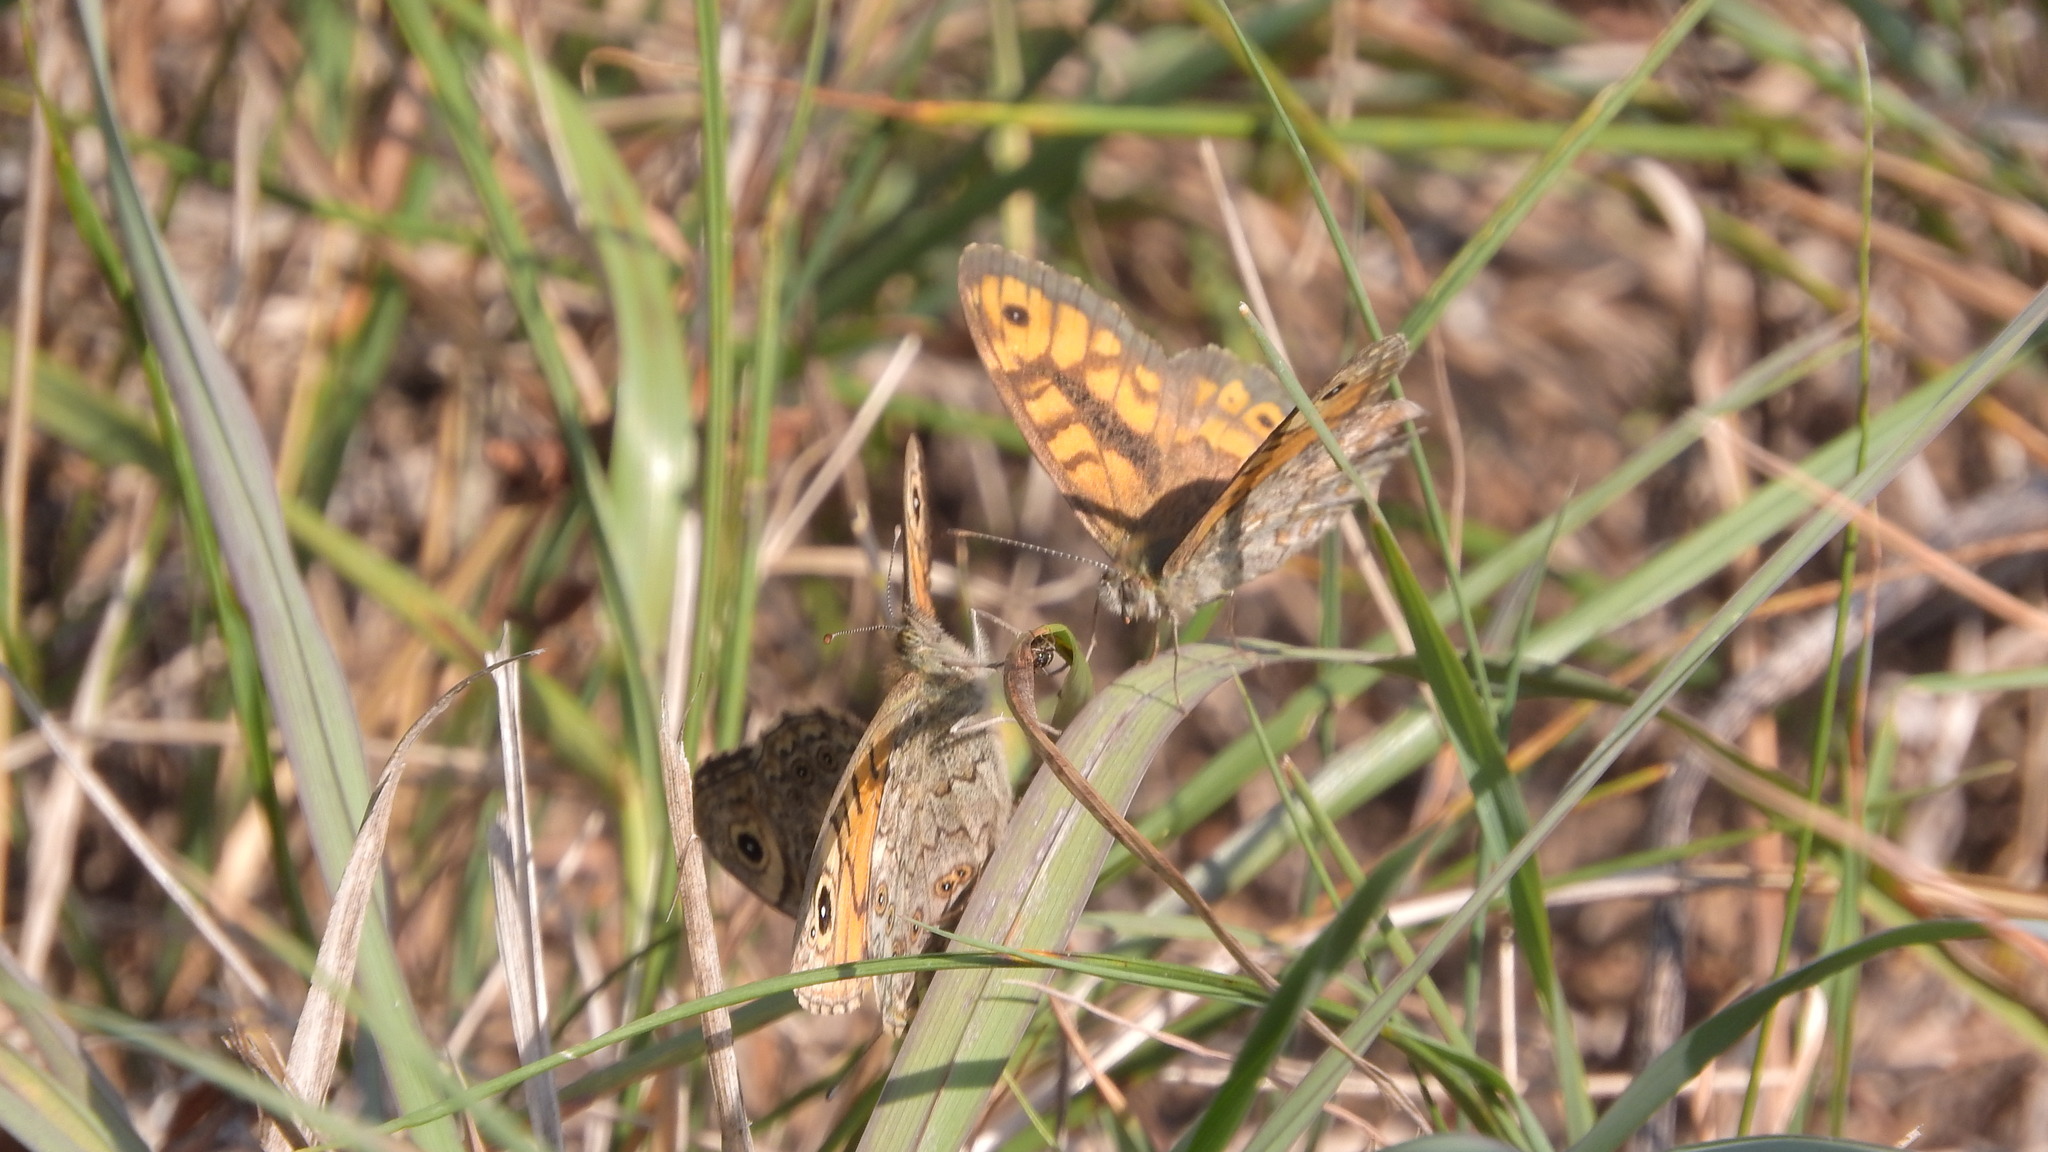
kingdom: Animalia
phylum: Arthropoda
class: Insecta
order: Lepidoptera
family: Nymphalidae
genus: Pararge
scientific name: Pararge Lasiommata megera
